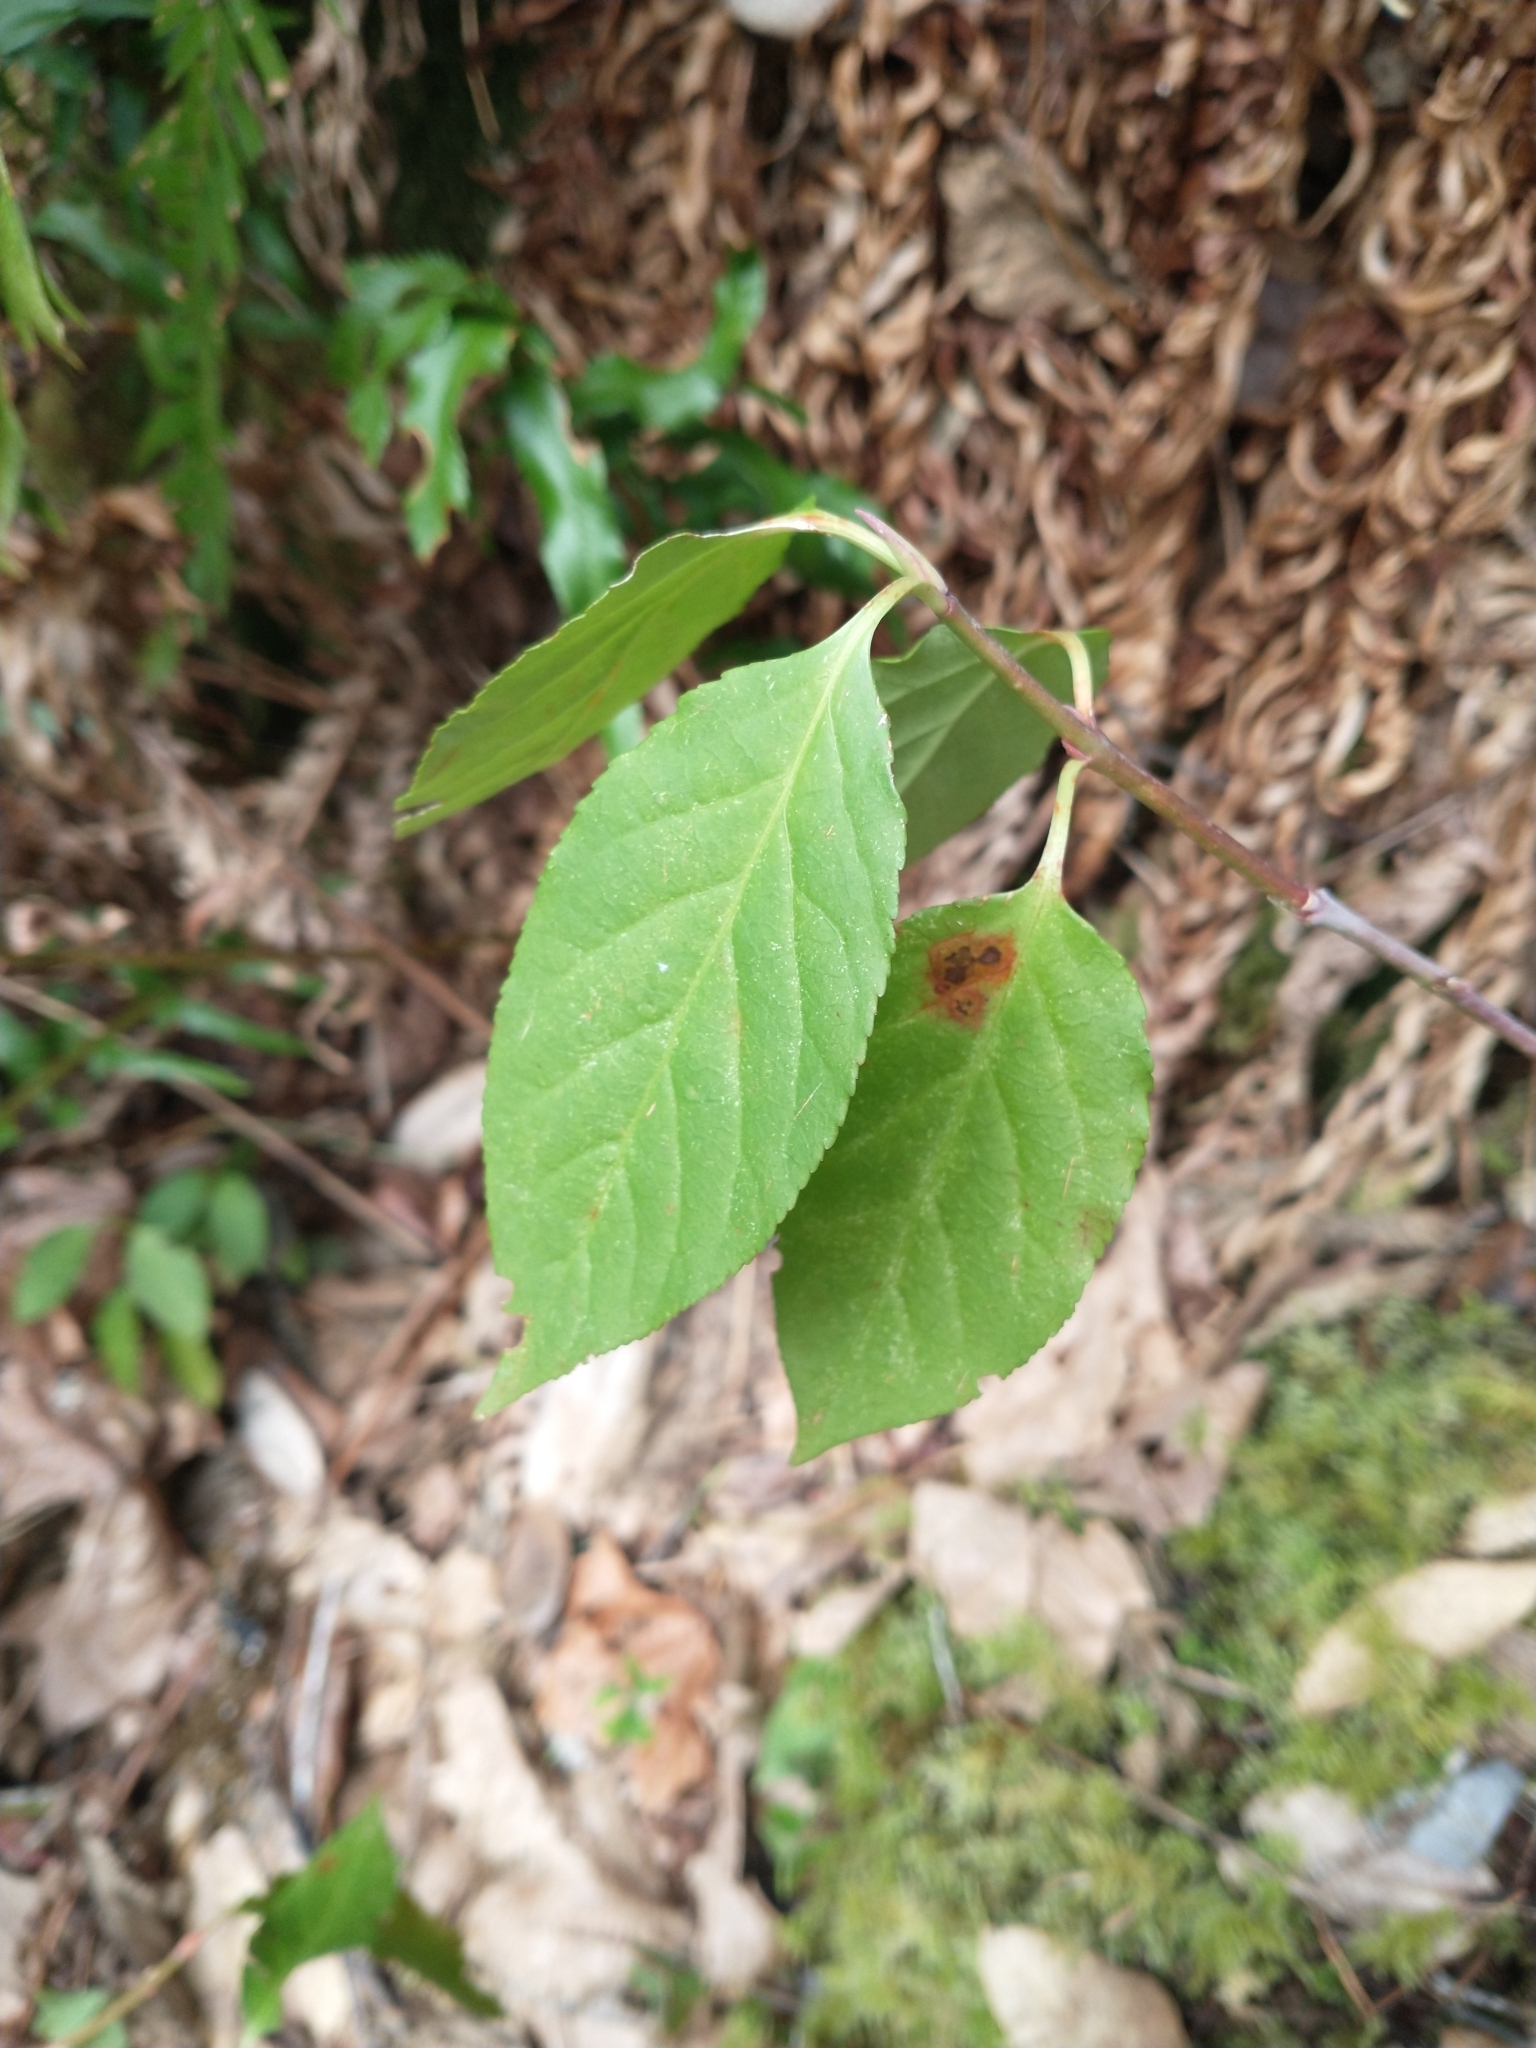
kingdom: Plantae
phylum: Tracheophyta
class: Magnoliopsida
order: Celastrales
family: Celastraceae
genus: Euonymus
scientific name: Euonymus occidentalis
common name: Western burningbush
